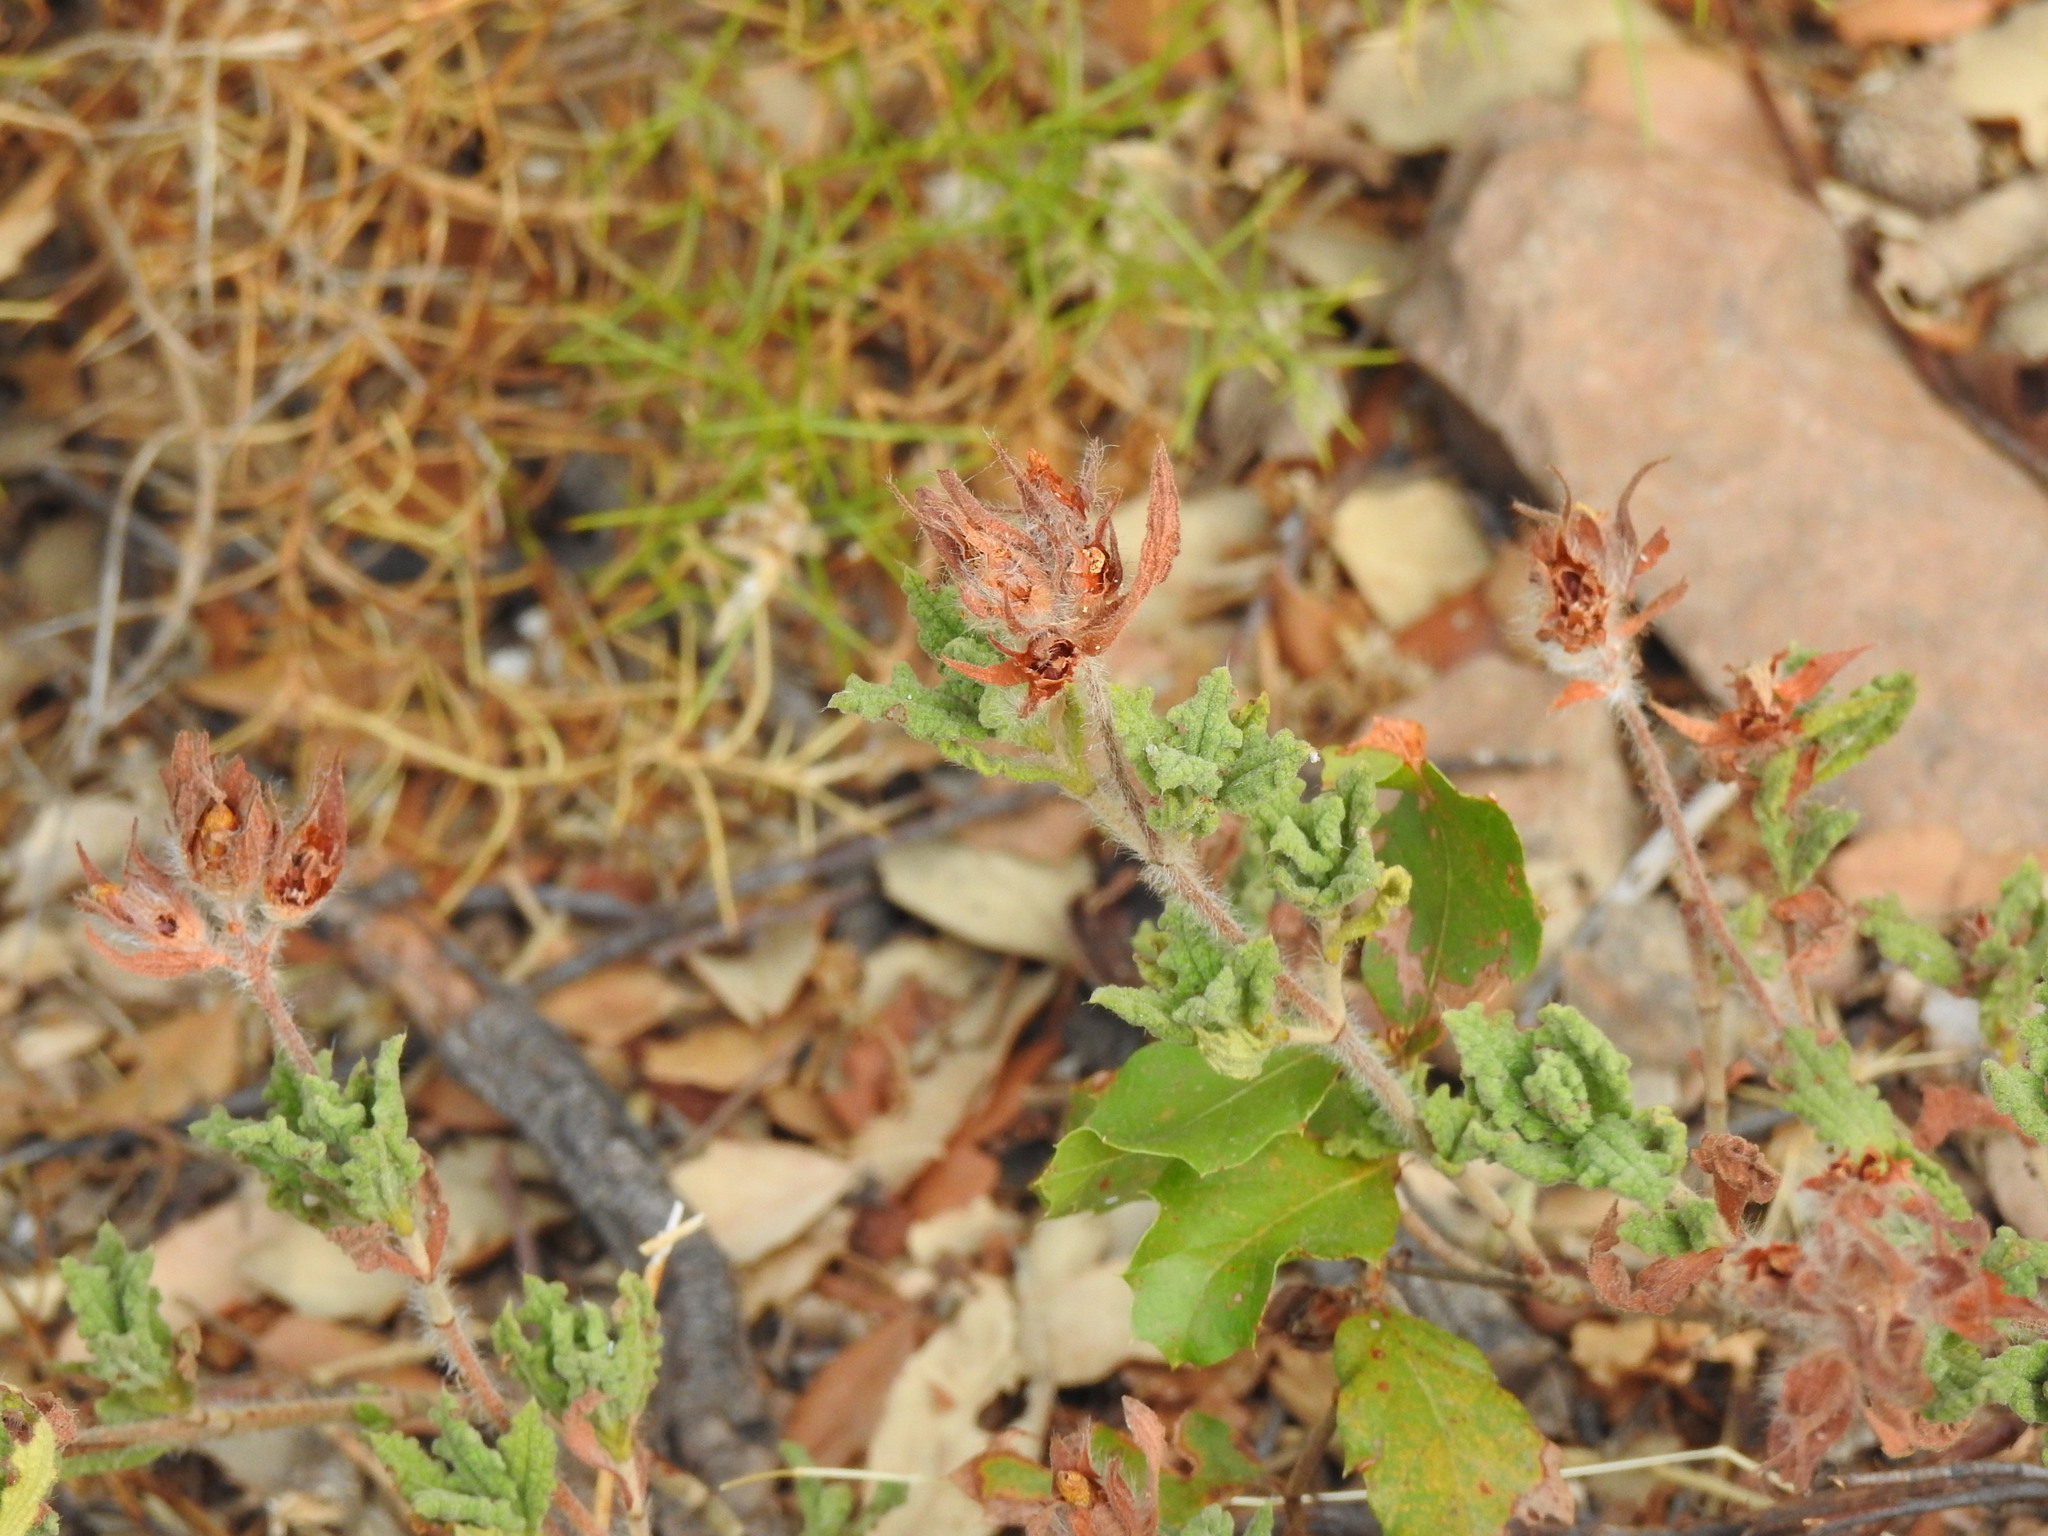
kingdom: Plantae
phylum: Tracheophyta
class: Magnoliopsida
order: Malvales
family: Cistaceae
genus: Cistus
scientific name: Cistus crispus
